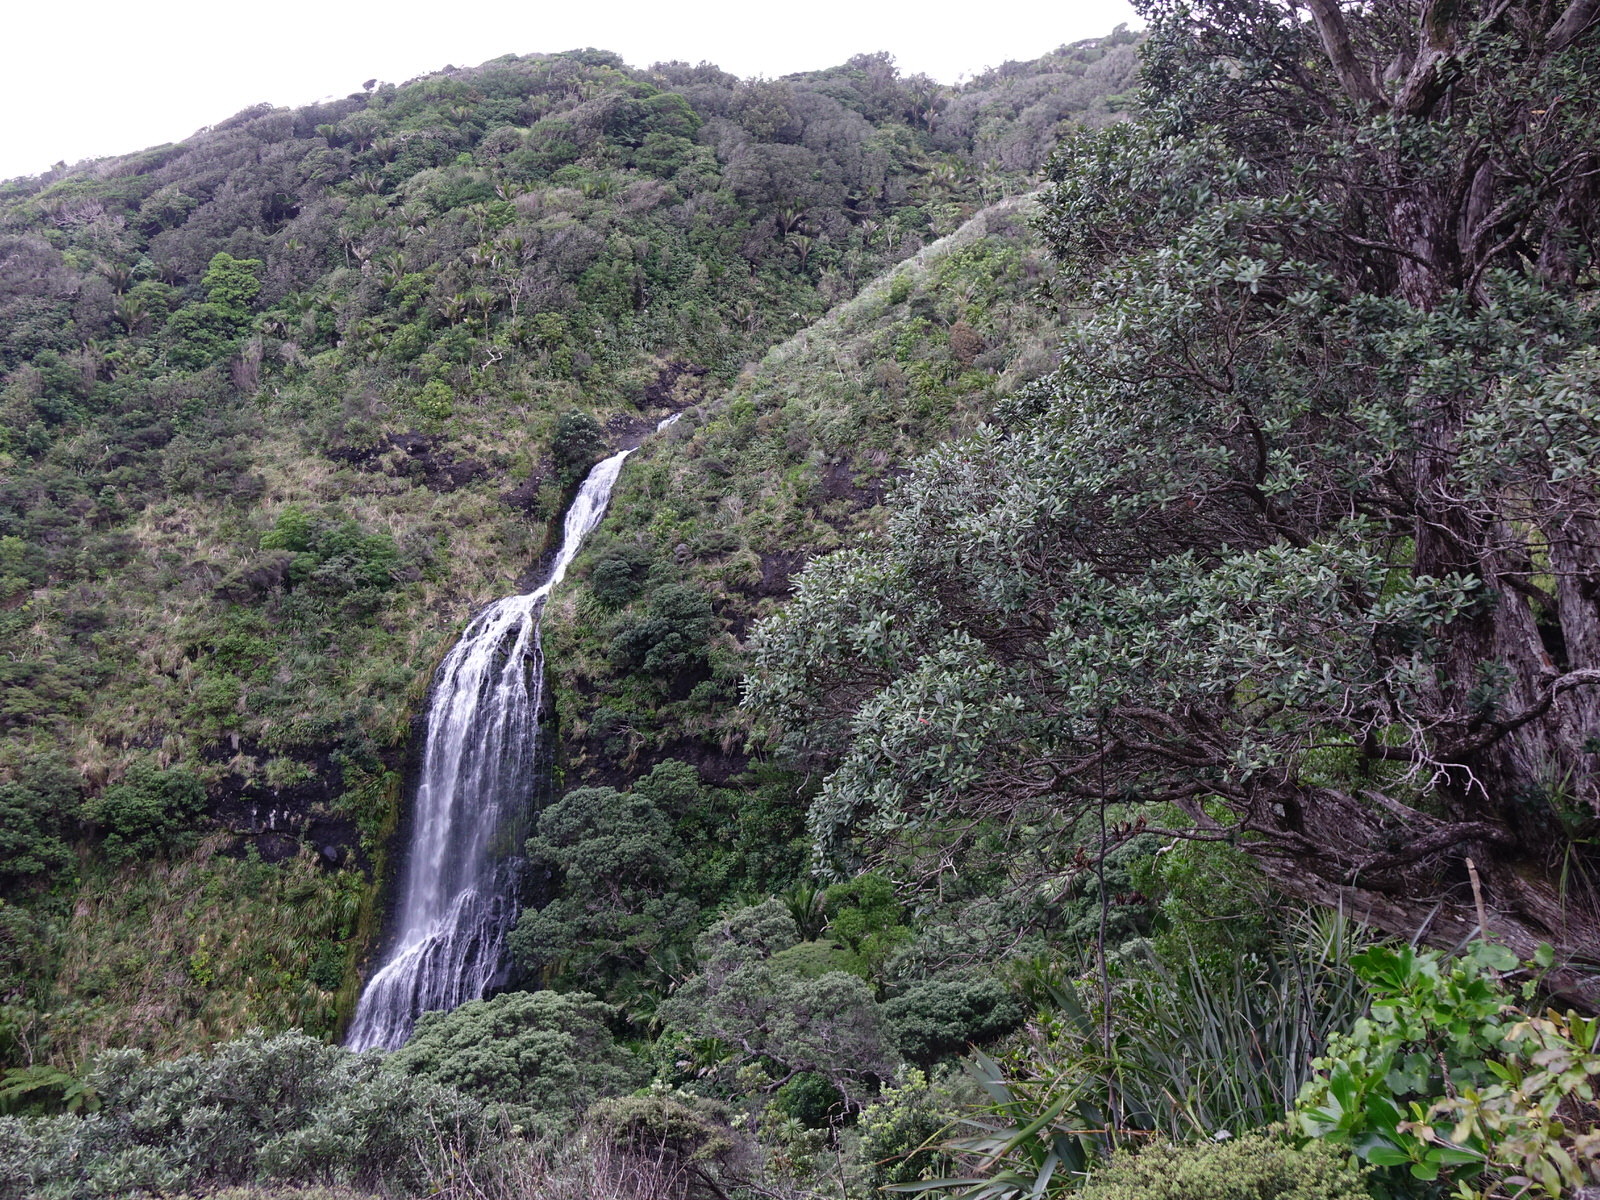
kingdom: Plantae
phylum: Tracheophyta
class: Magnoliopsida
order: Myrtales
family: Myrtaceae
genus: Metrosideros
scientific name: Metrosideros excelsa
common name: New zealand christmastree
